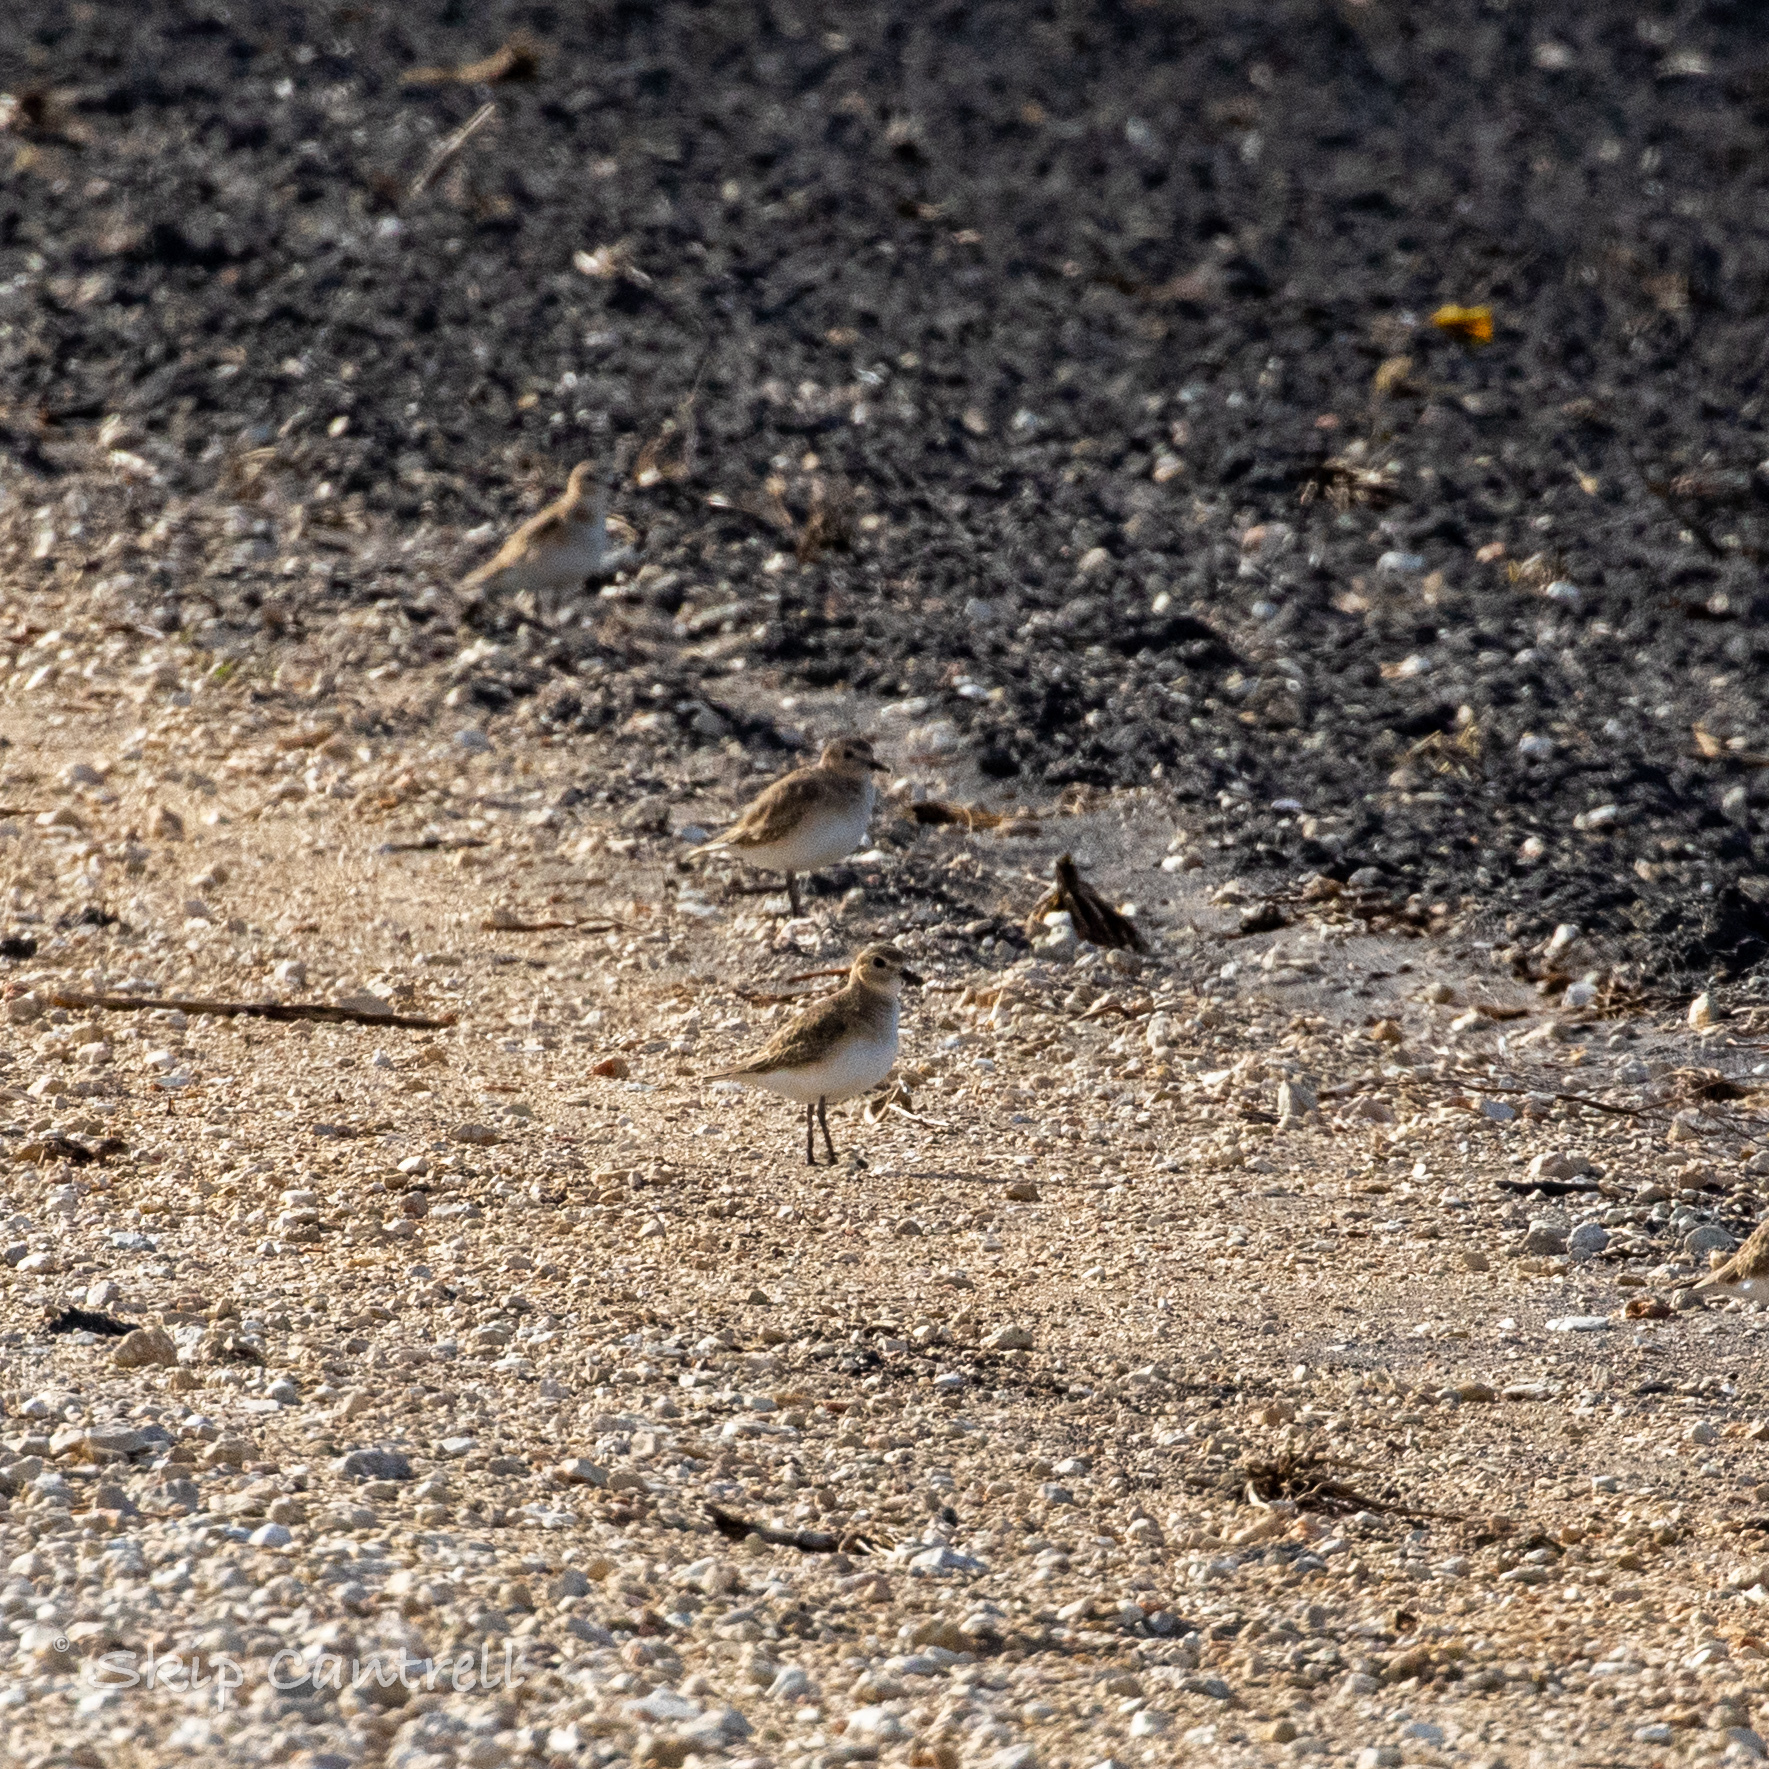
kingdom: Animalia
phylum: Chordata
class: Aves
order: Charadriiformes
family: Charadriidae
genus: Anarhynchus
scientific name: Anarhynchus
